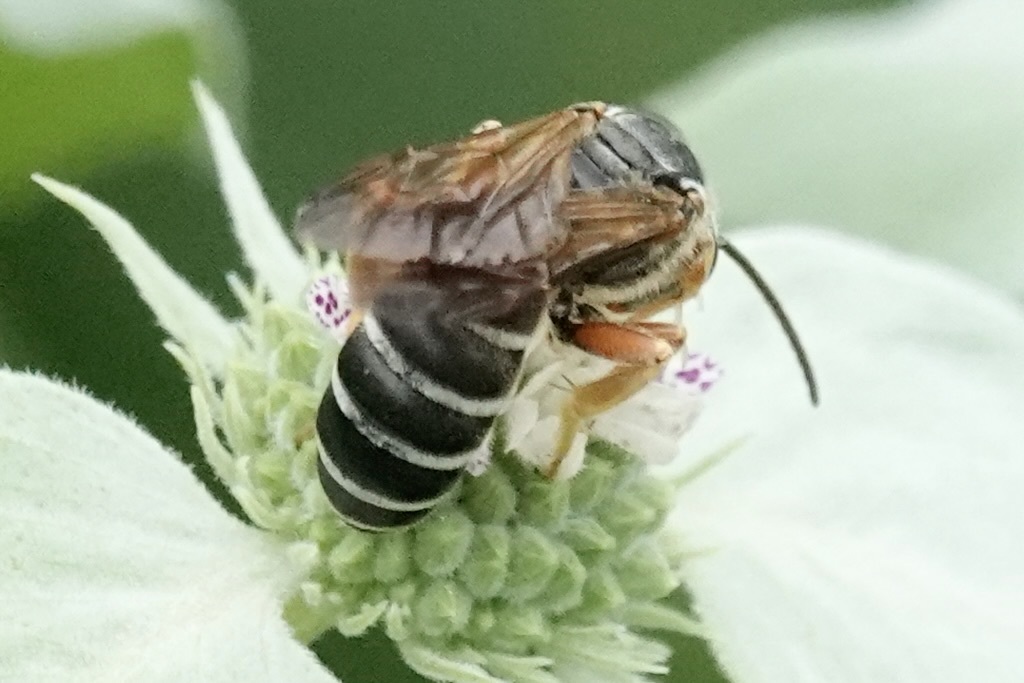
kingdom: Animalia
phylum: Arthropoda
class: Insecta
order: Hymenoptera
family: Halictidae
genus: Halictus
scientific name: Halictus parallelus
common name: Parallel-striped sweat bee
